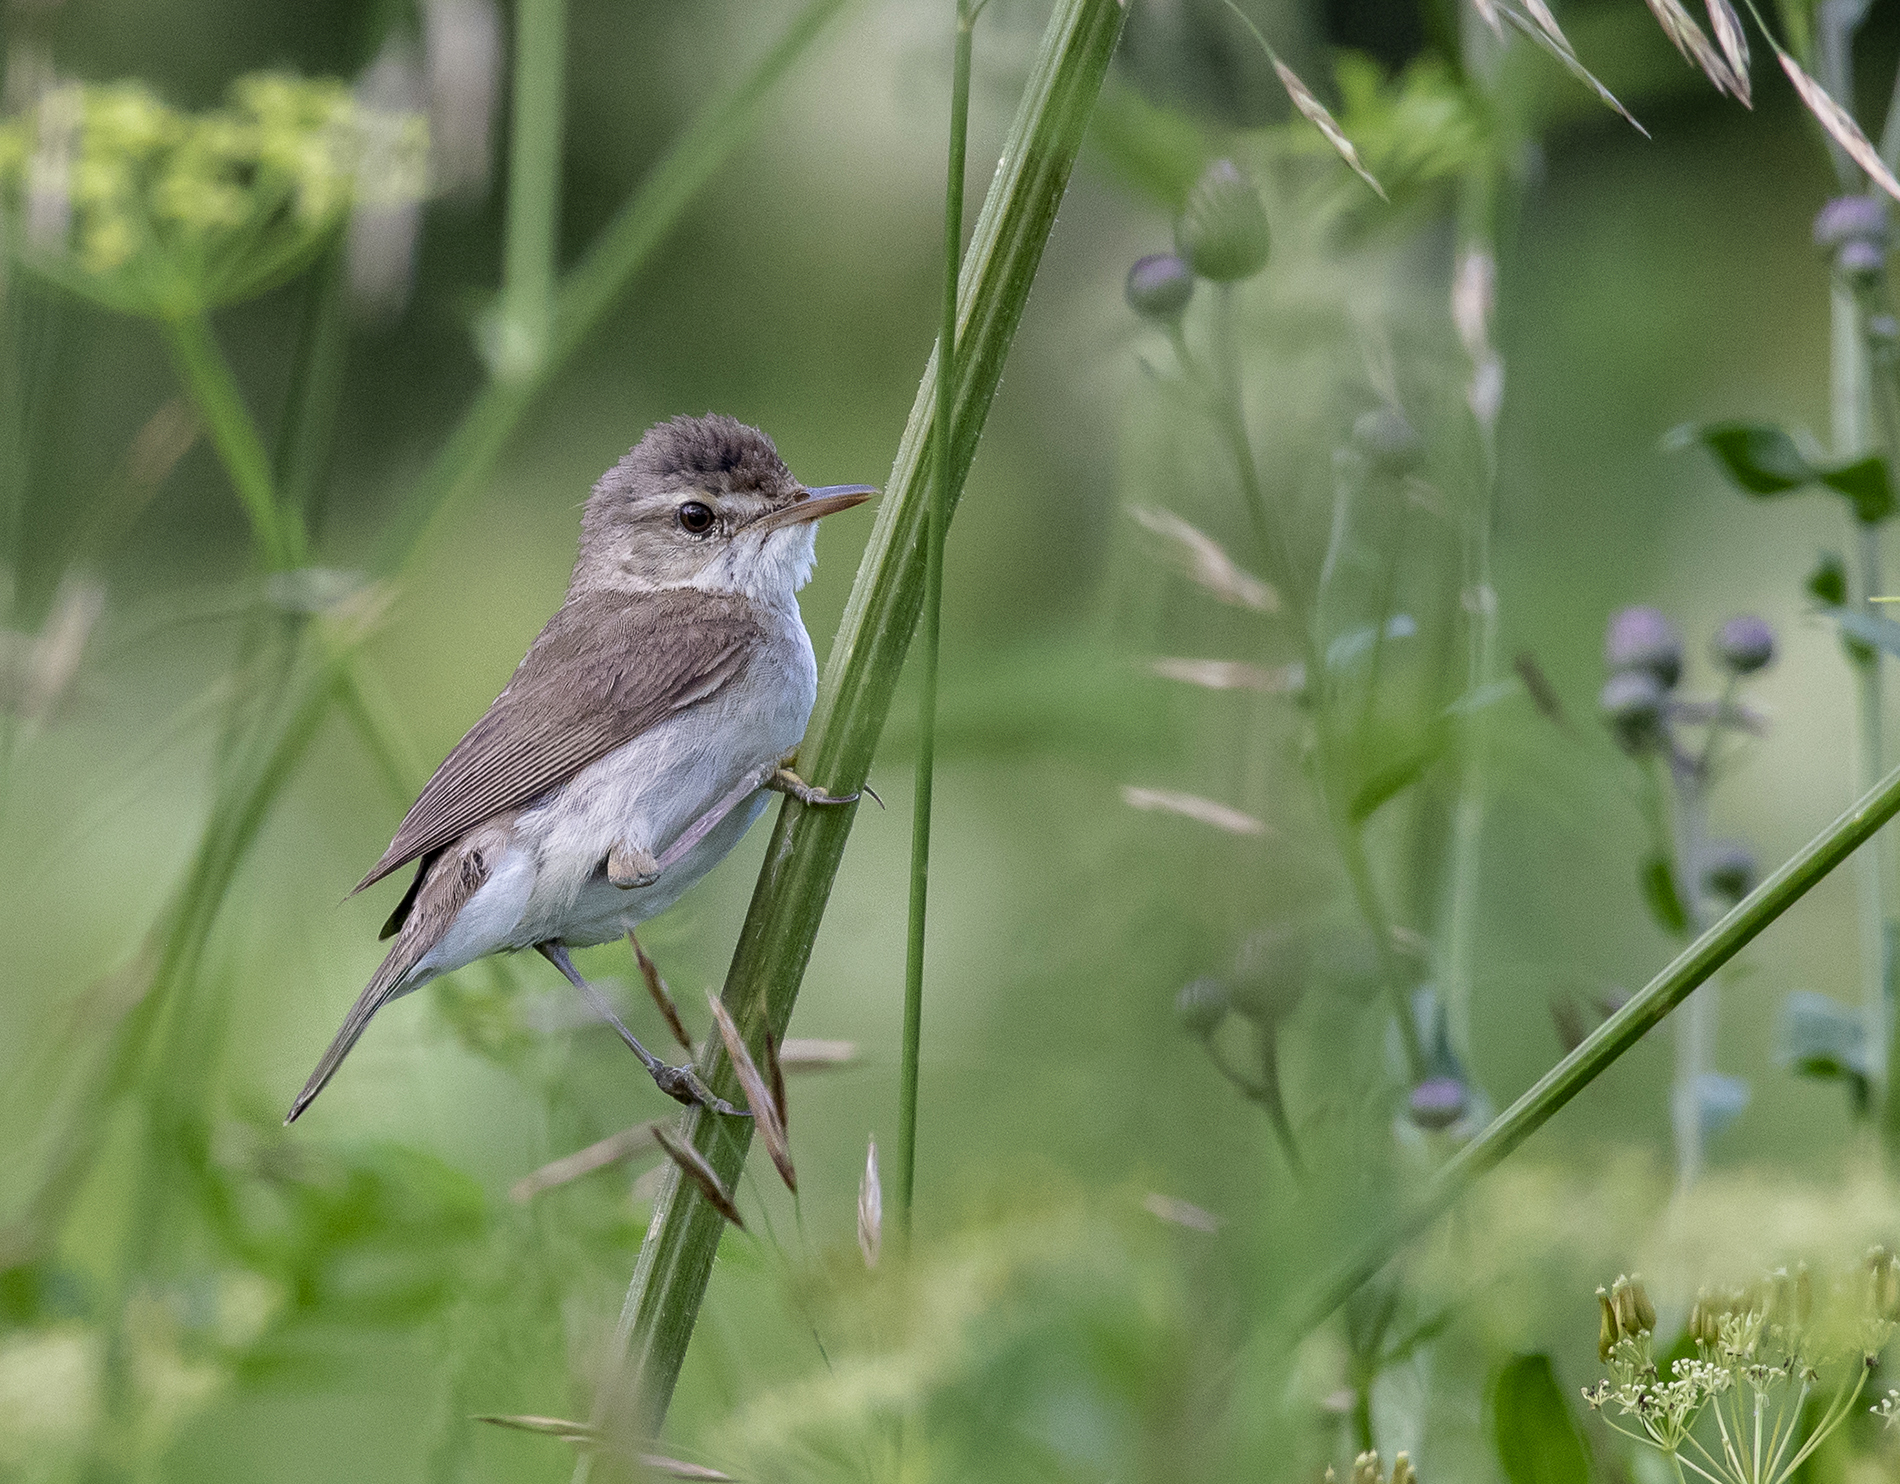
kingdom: Animalia
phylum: Chordata
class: Aves
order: Passeriformes
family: Acrocephalidae
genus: Acrocephalus
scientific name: Acrocephalus dumetorum
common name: Blyth's reed warbler
